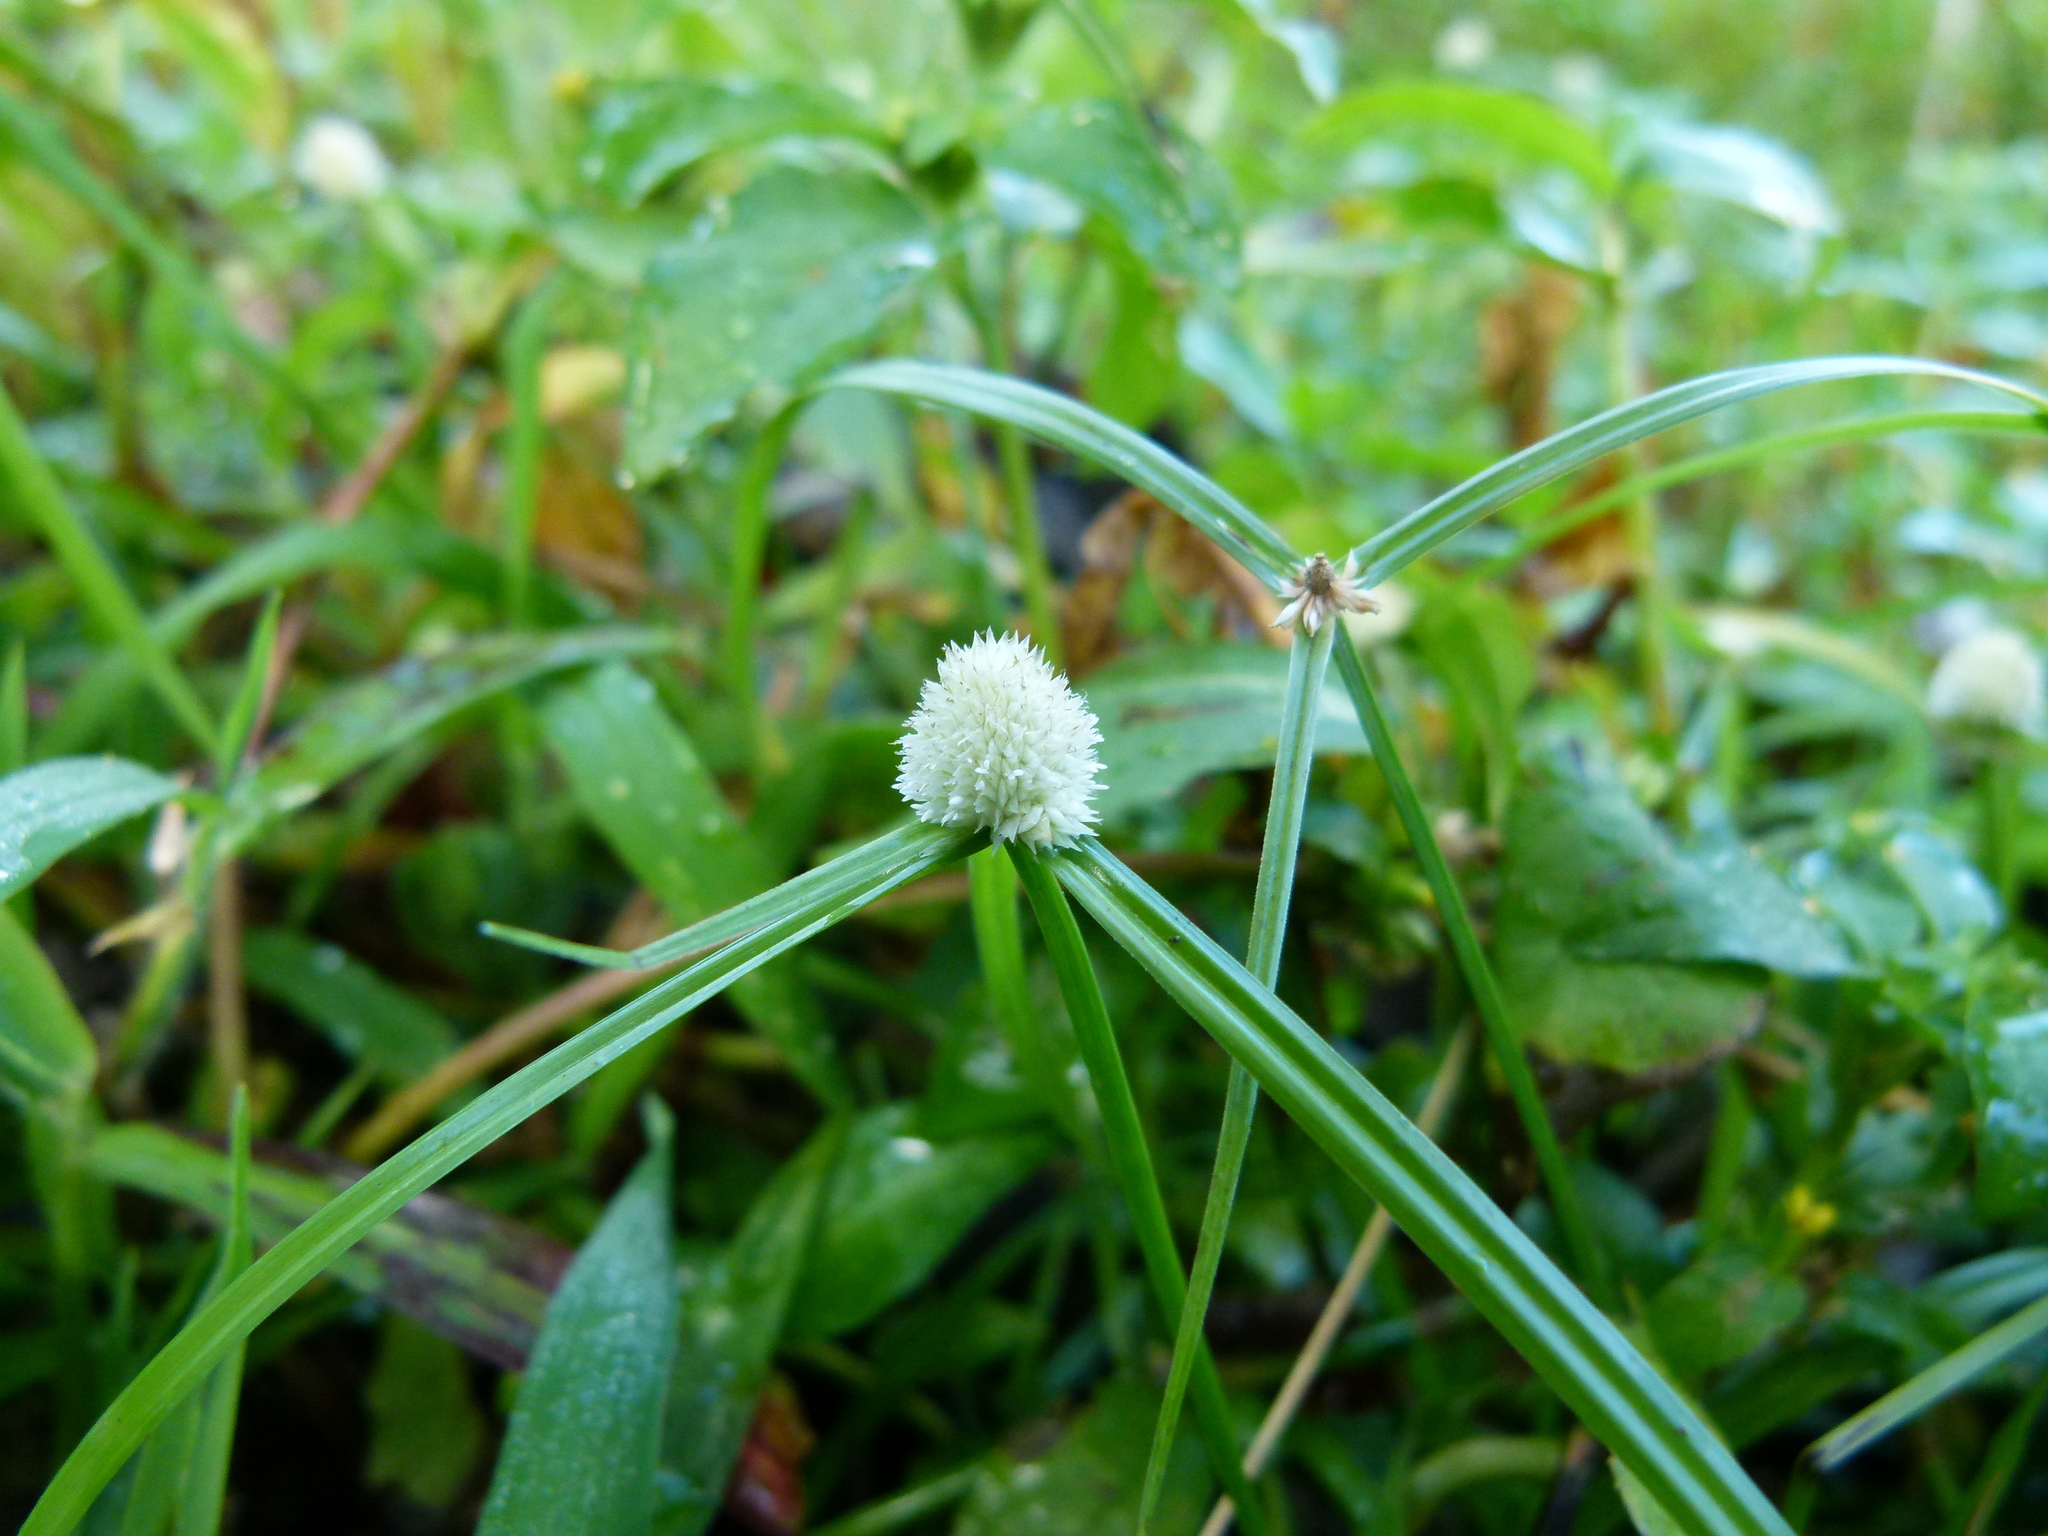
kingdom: Plantae
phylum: Tracheophyta
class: Liliopsida
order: Poales
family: Cyperaceae
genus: Cyperus
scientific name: Cyperus mindorensis
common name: Flatsedge
